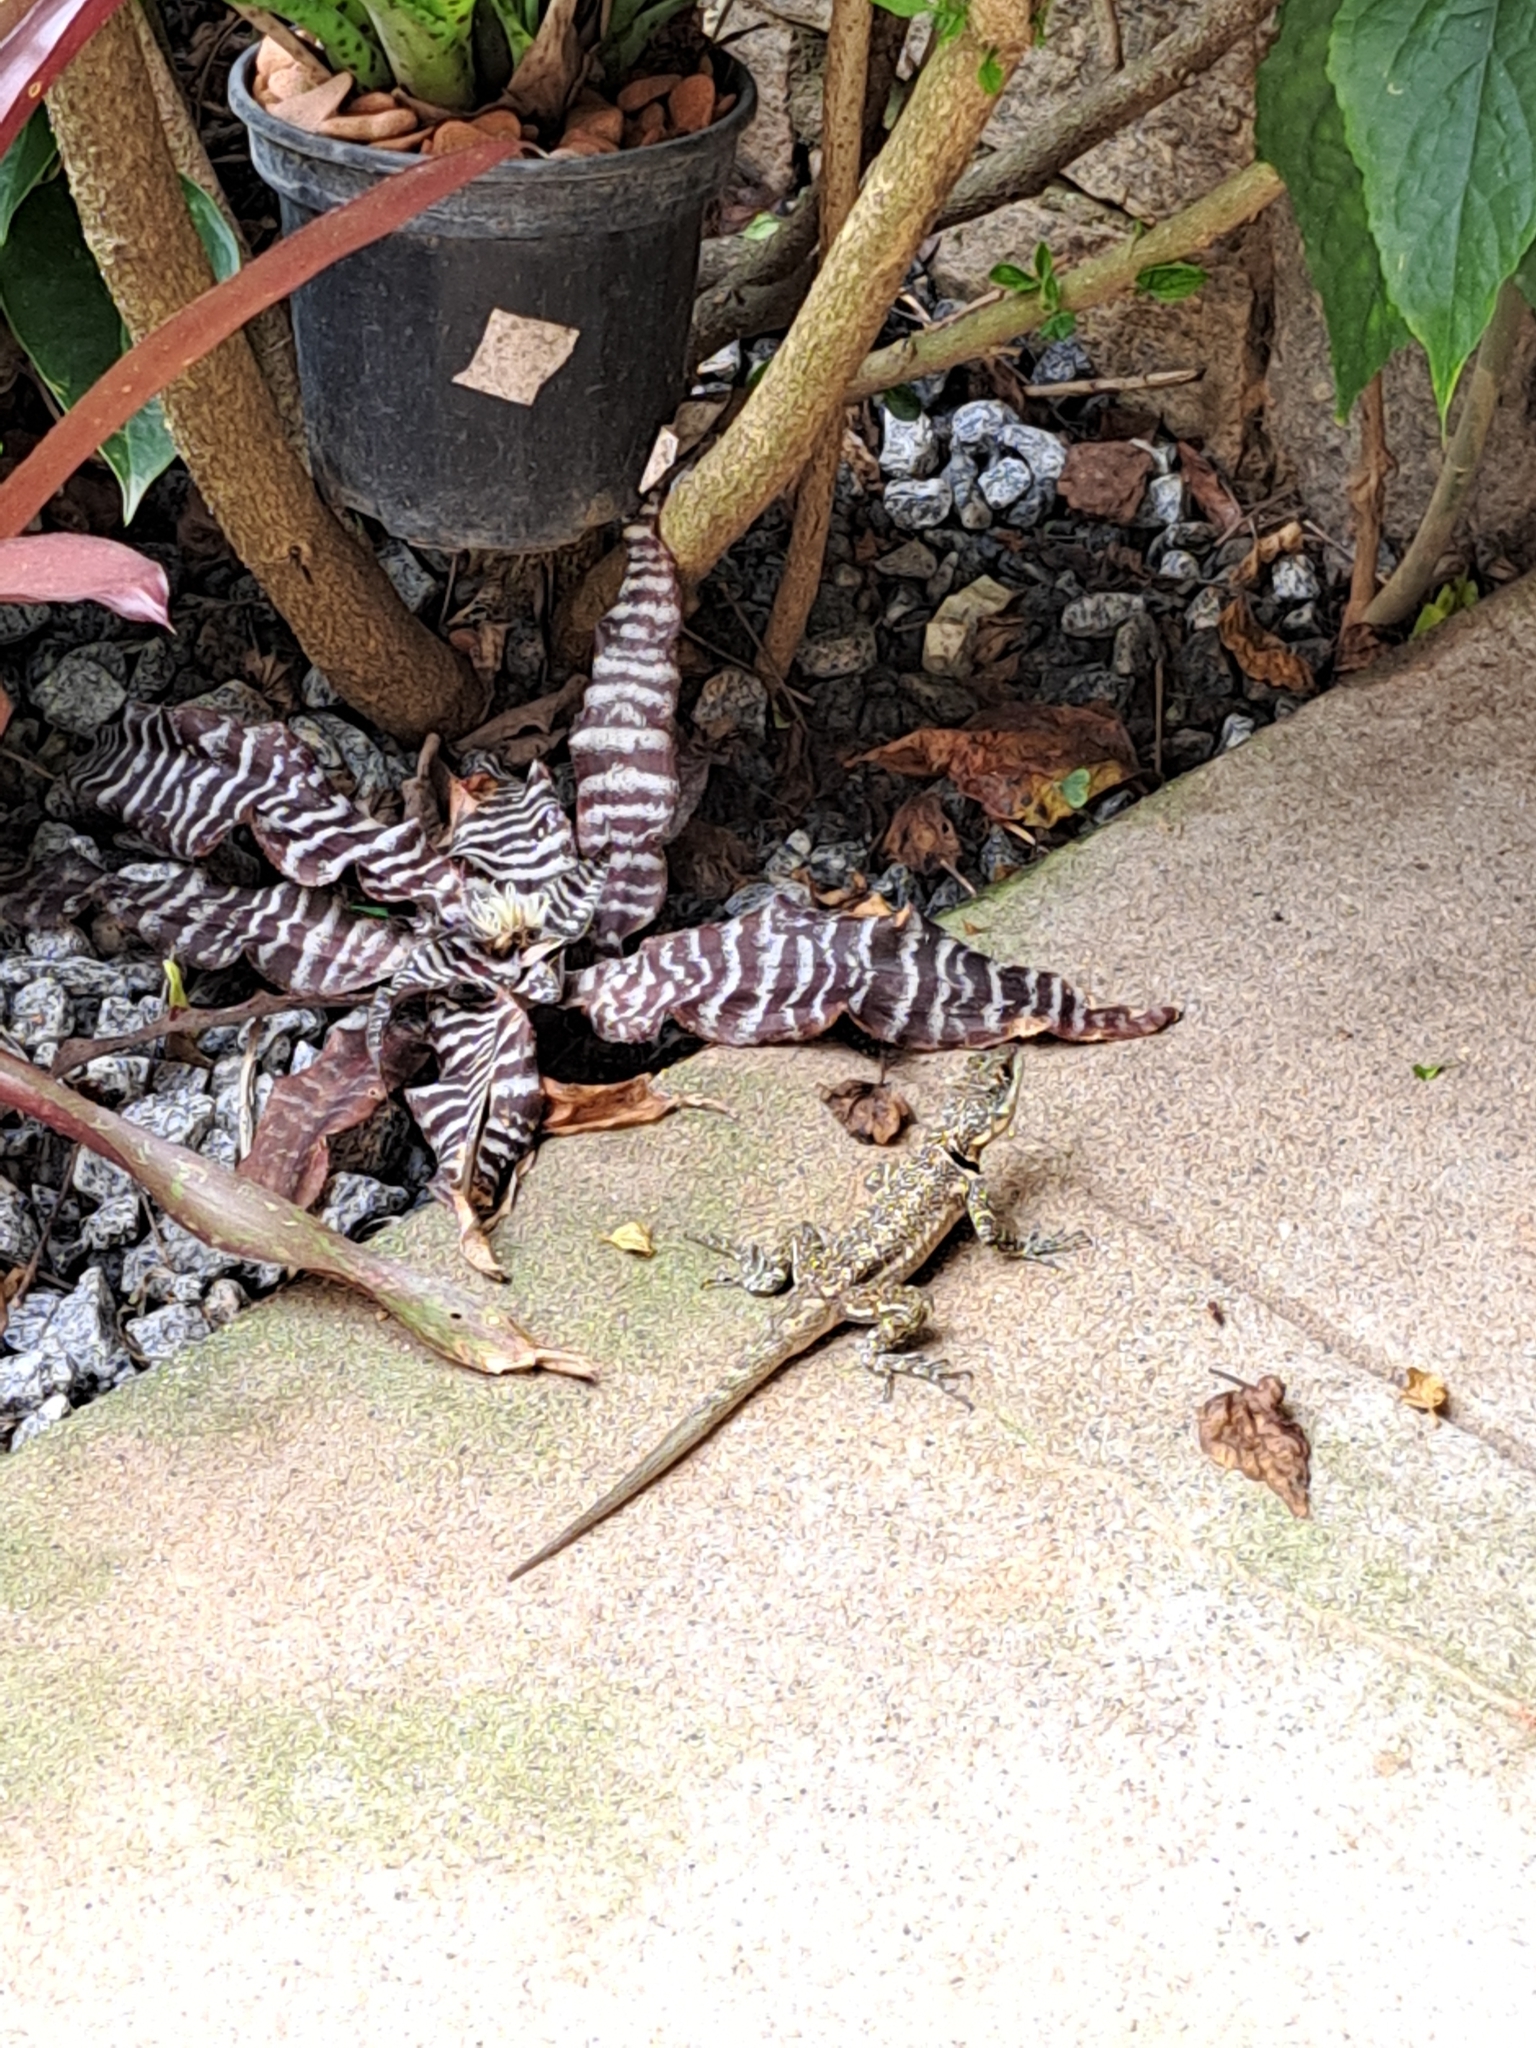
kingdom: Animalia
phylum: Chordata
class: Squamata
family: Tropiduridae
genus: Tropidurus
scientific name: Tropidurus torquatus
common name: Amazon lava lizard
